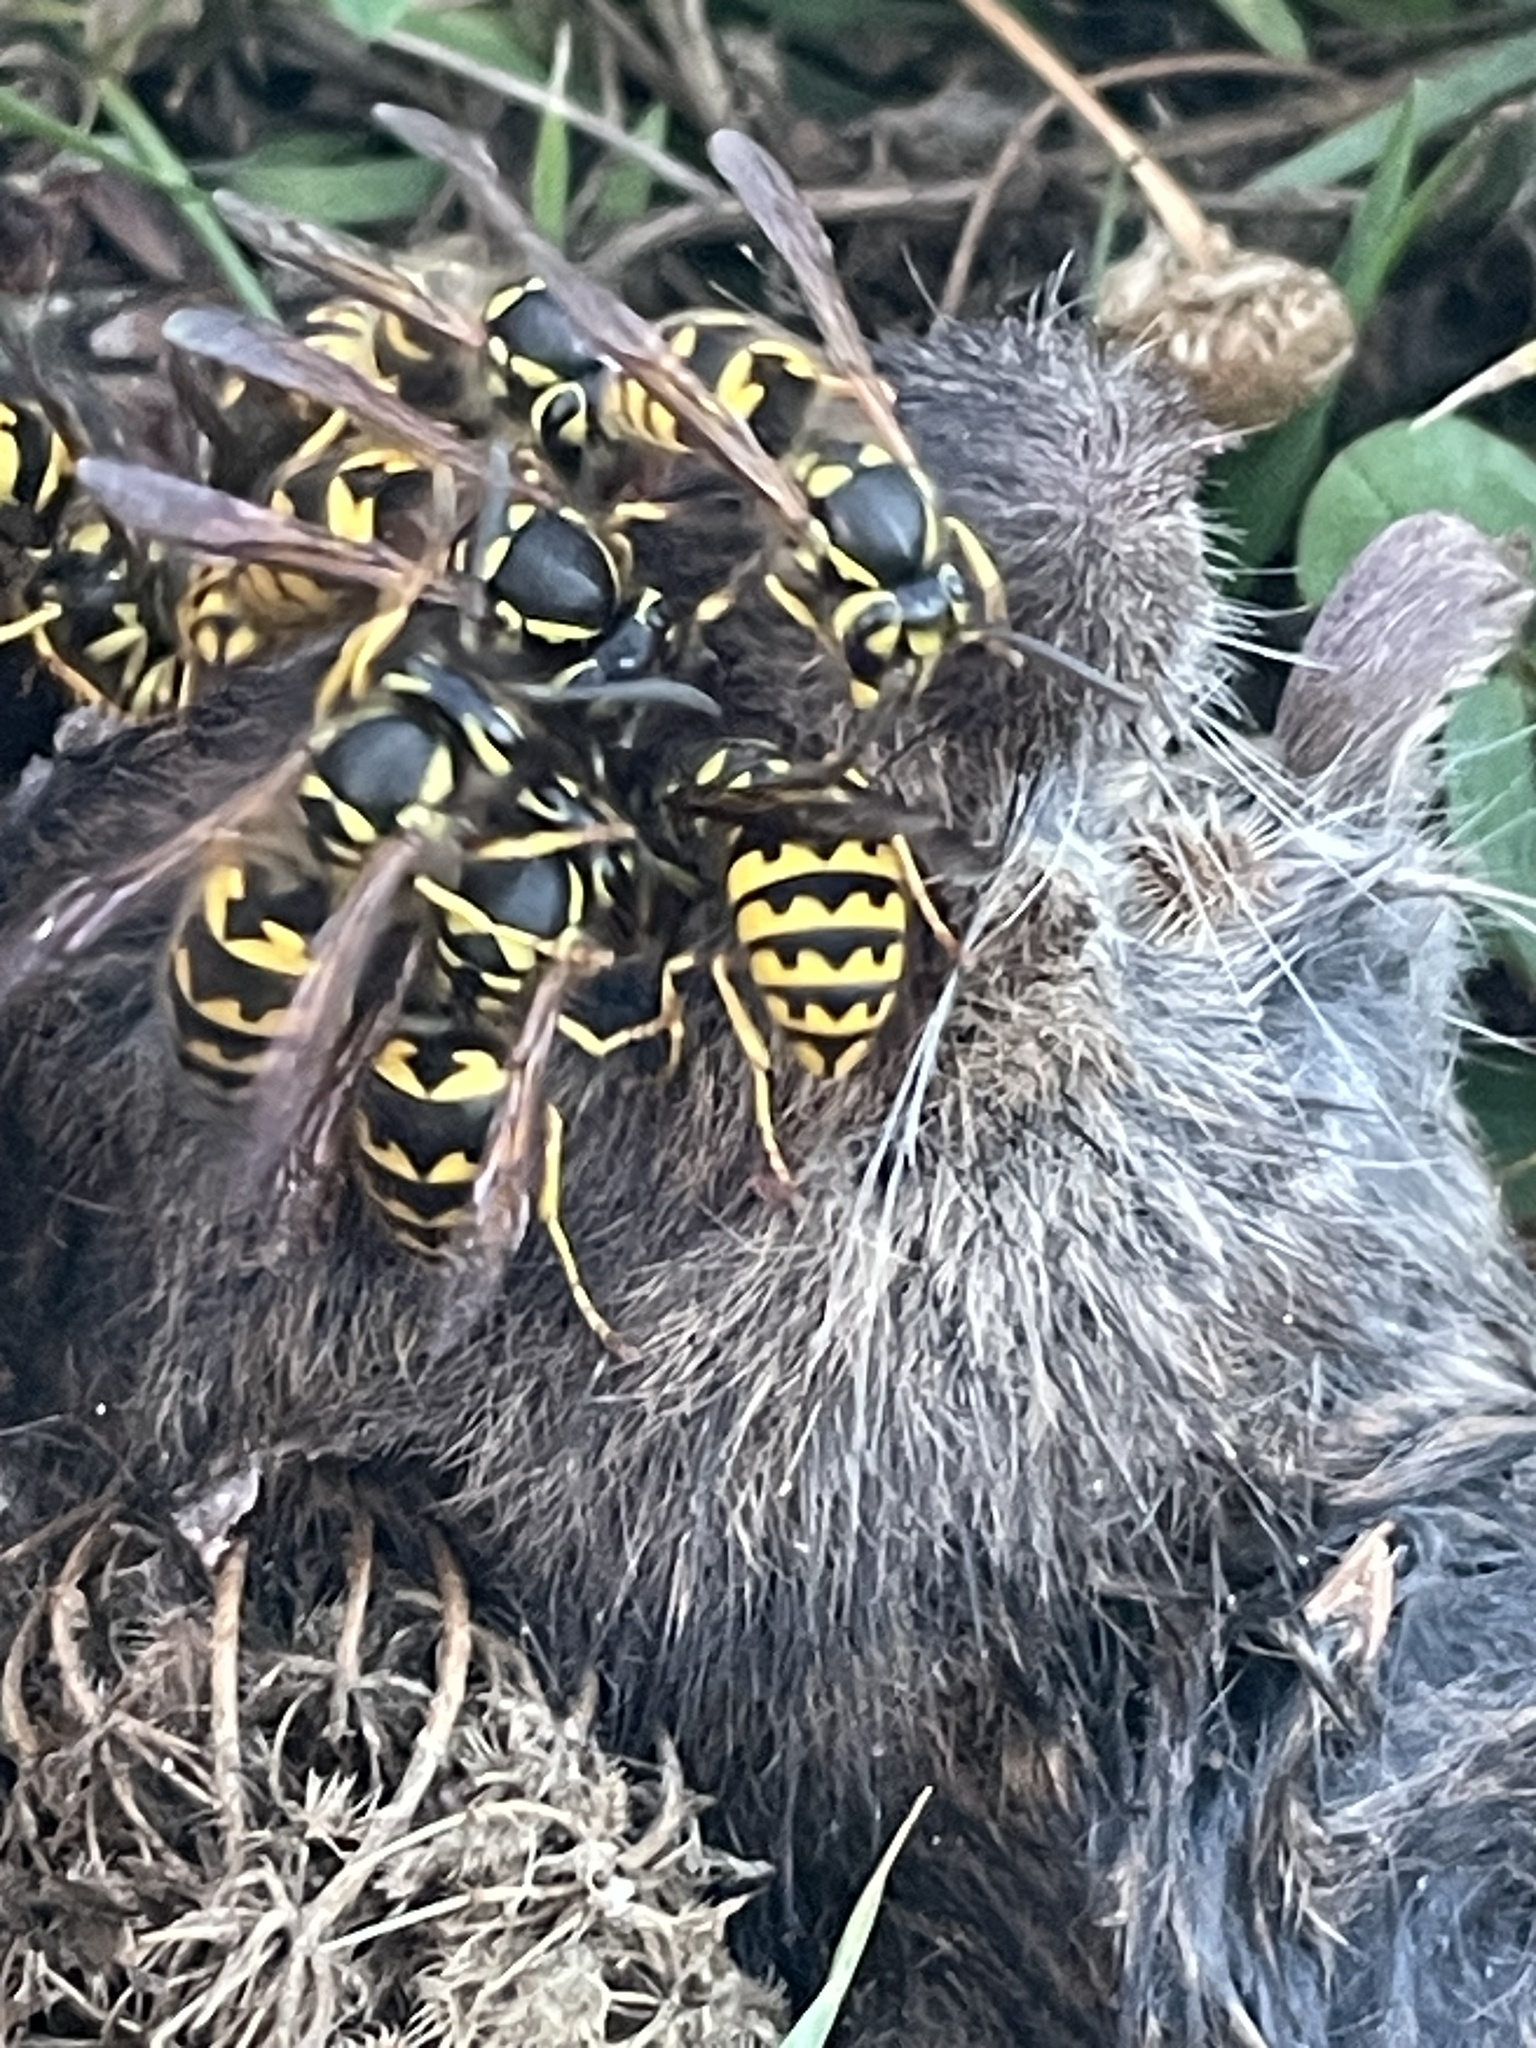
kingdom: Animalia
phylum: Arthropoda
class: Insecta
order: Hymenoptera
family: Vespidae
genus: Vespula
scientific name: Vespula pensylvanica
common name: Western yellowjacket
